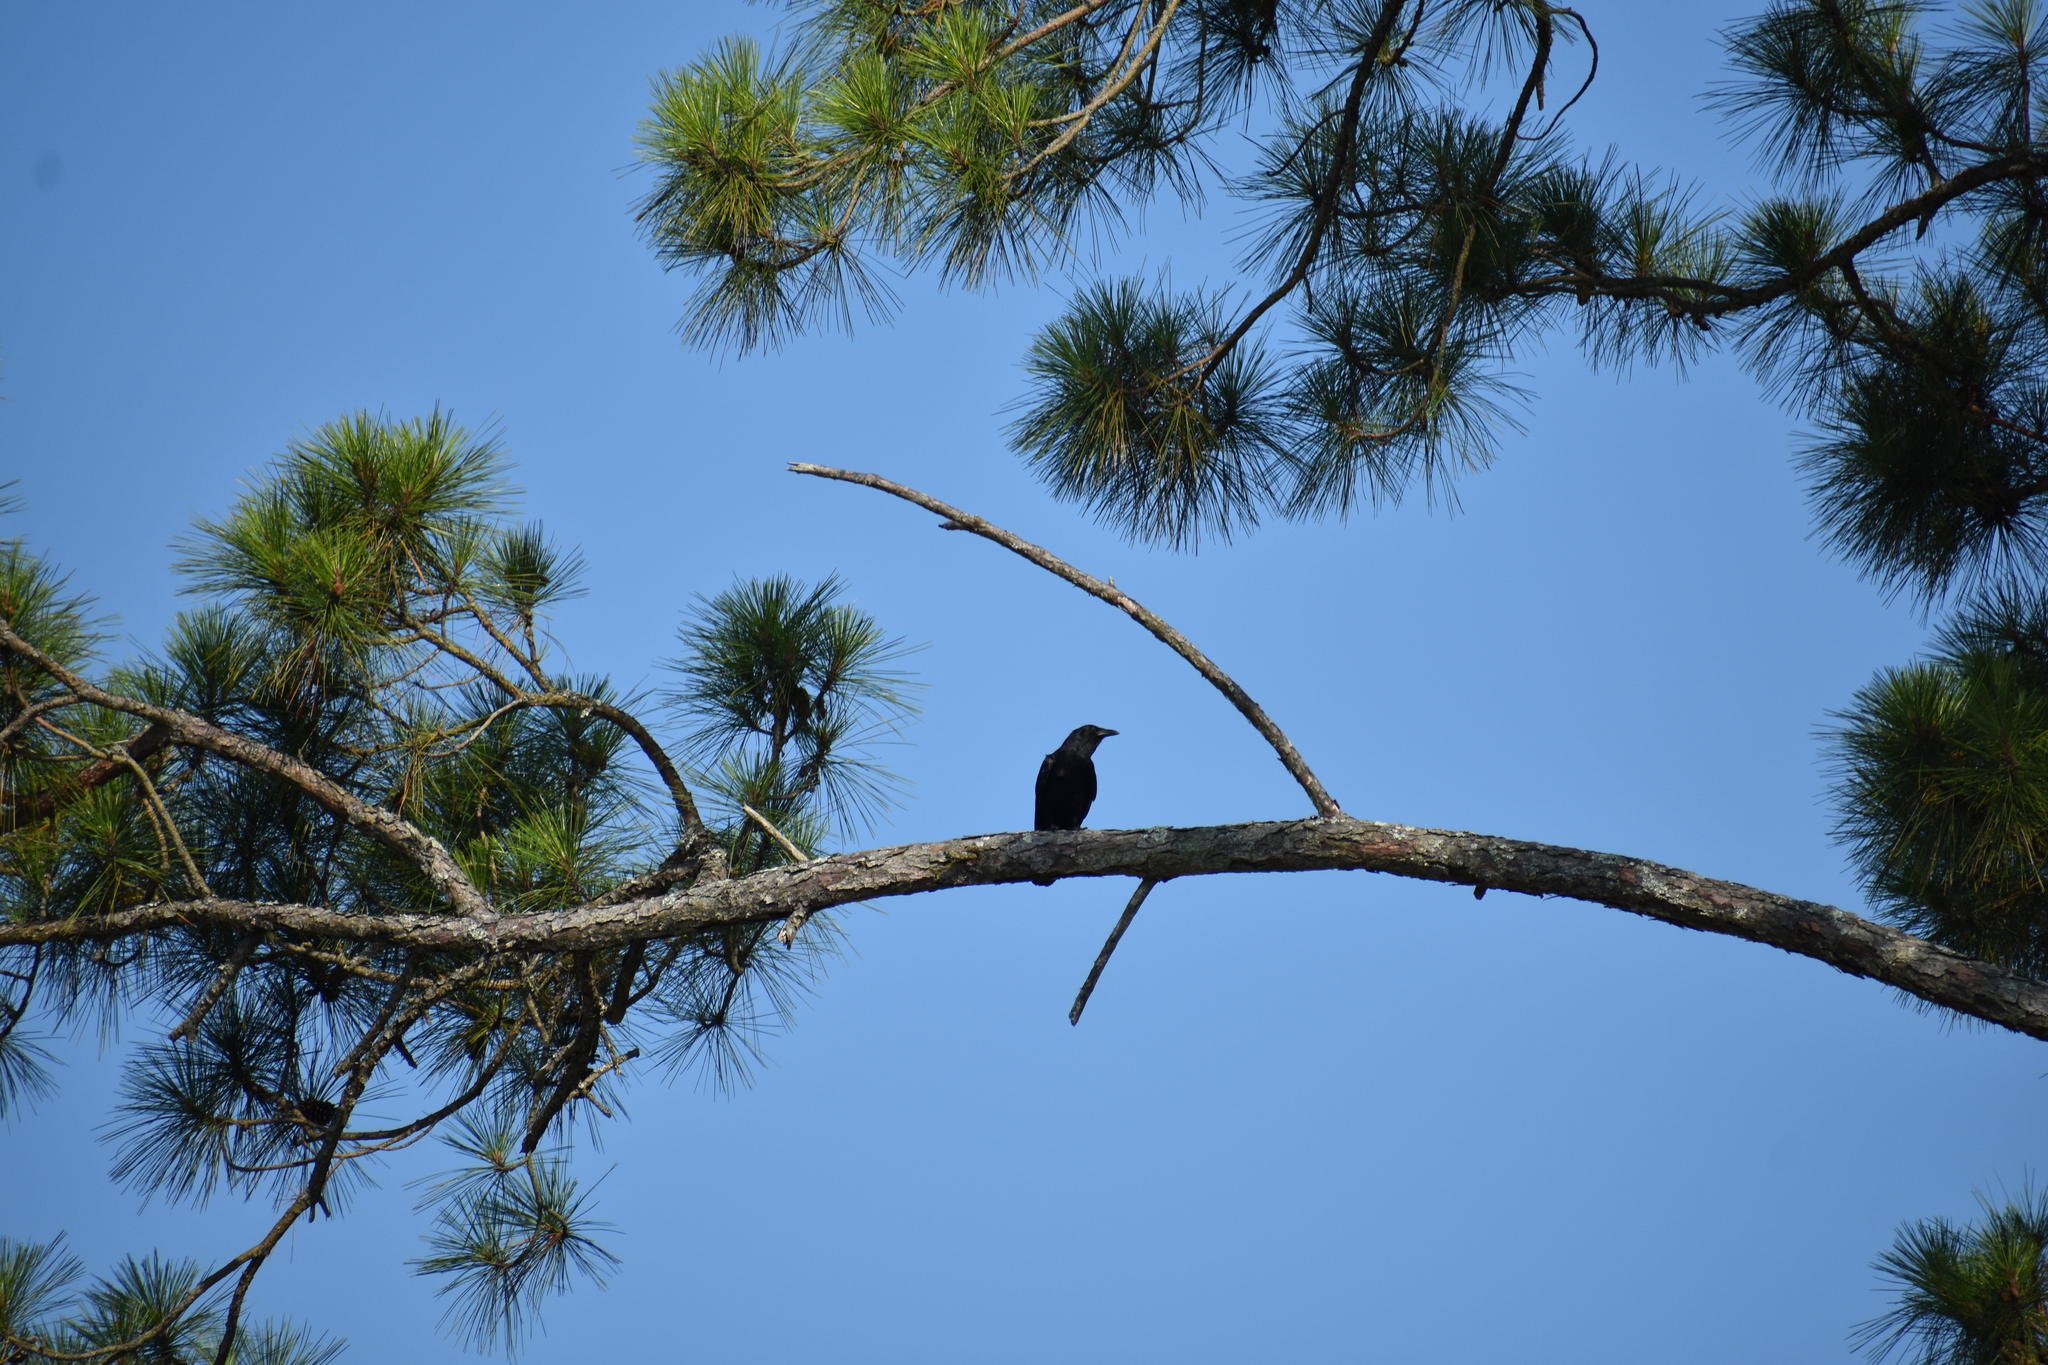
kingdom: Animalia
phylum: Chordata
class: Aves
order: Passeriformes
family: Corvidae
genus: Corvus
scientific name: Corvus ossifragus
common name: Fish crow
